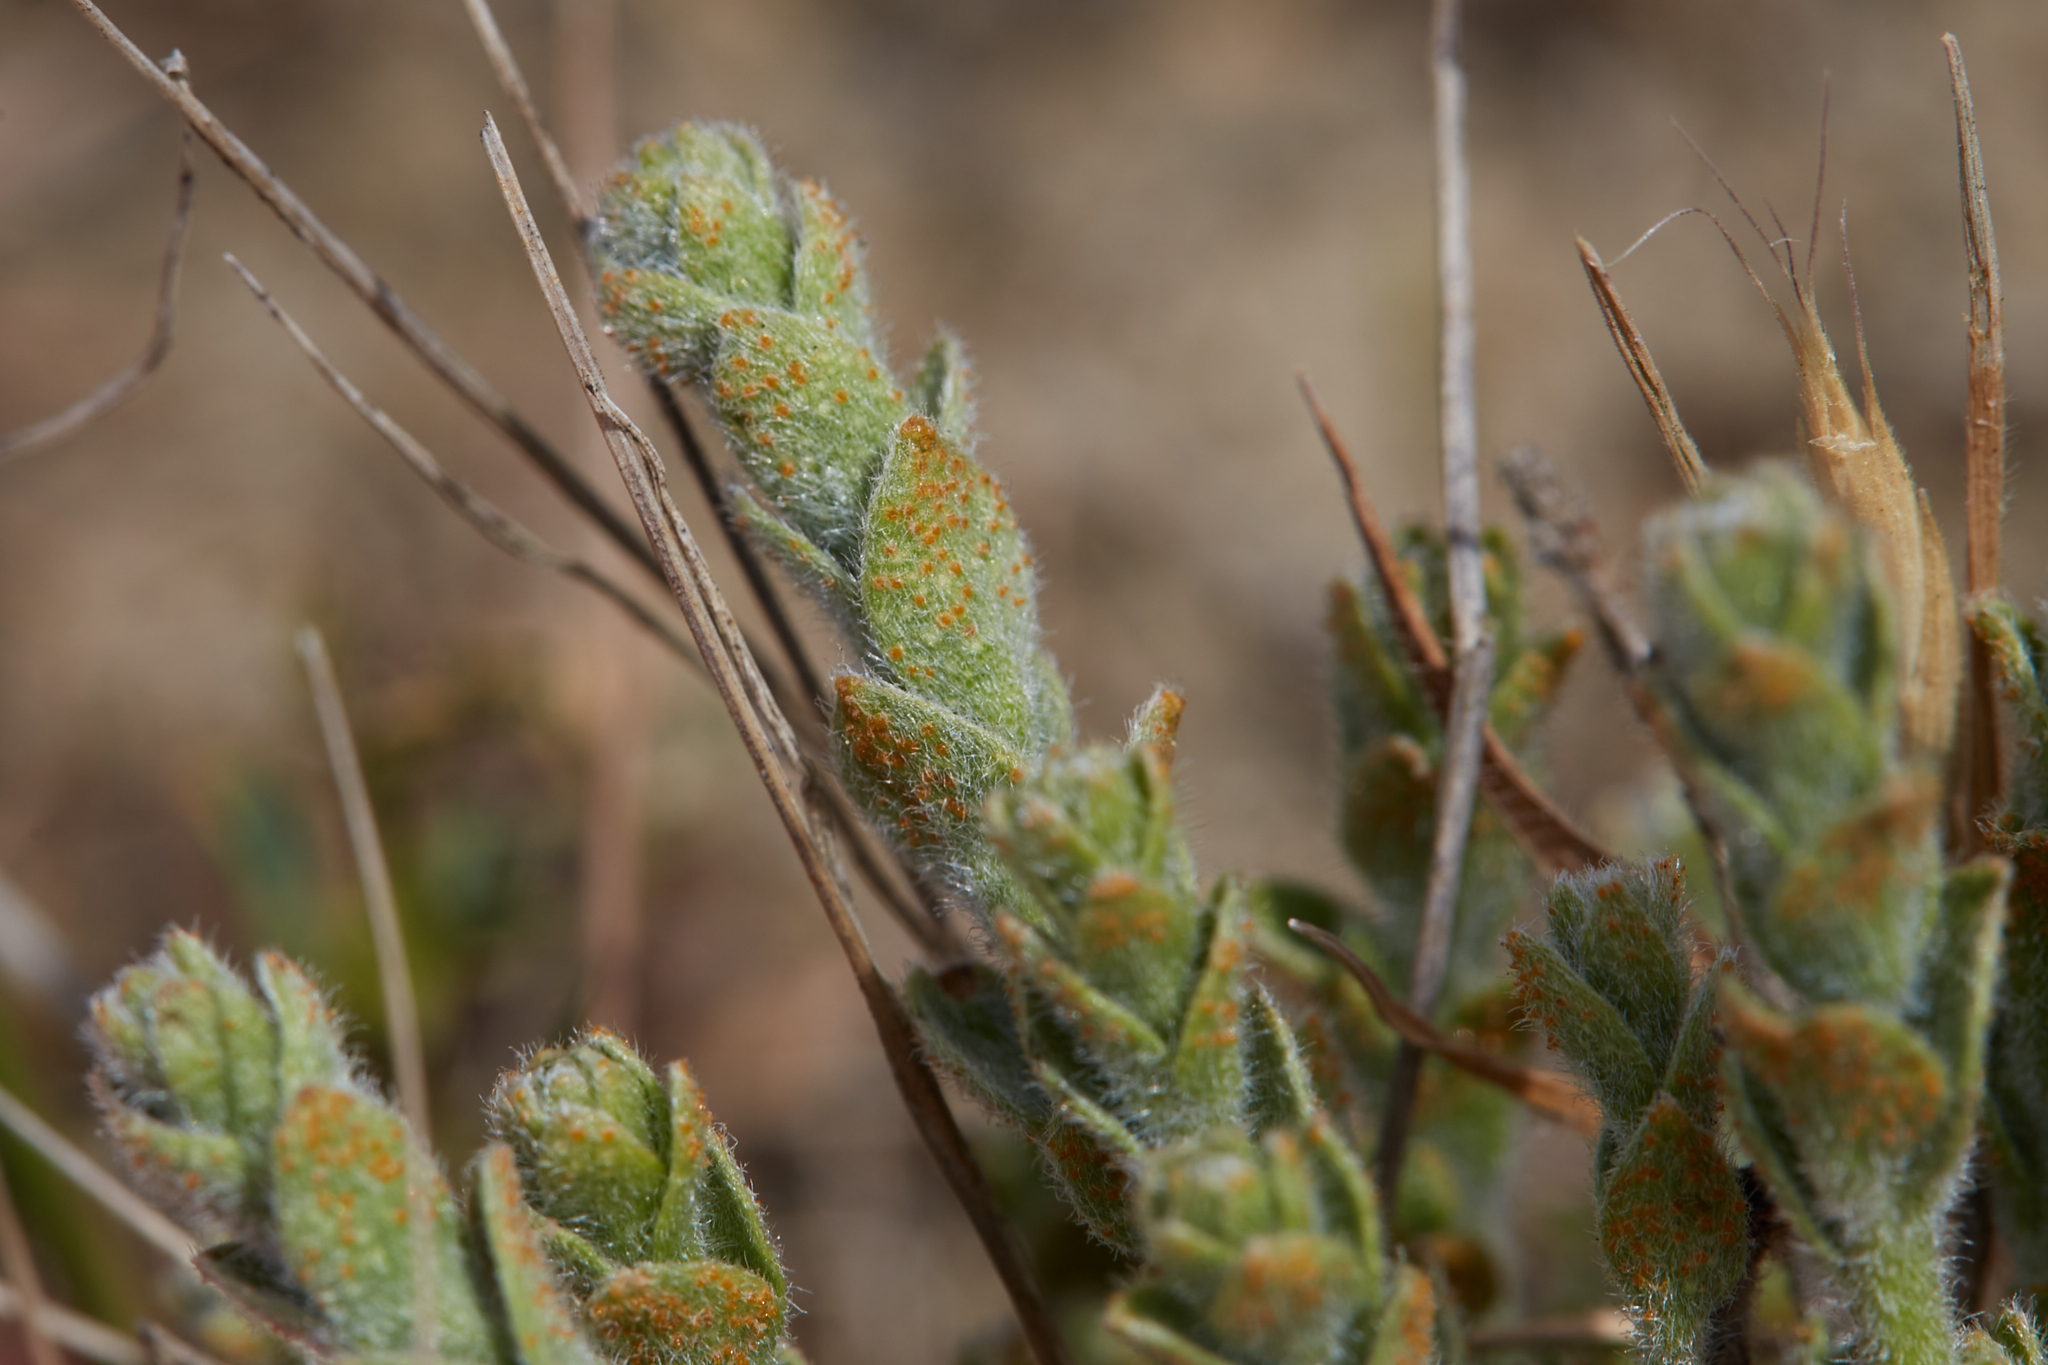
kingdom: Fungi
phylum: Basidiomycota
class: Pucciniomycetes
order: Pucciniales
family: Pucciniaceae
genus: Puccinia
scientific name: Puccinia cressae
